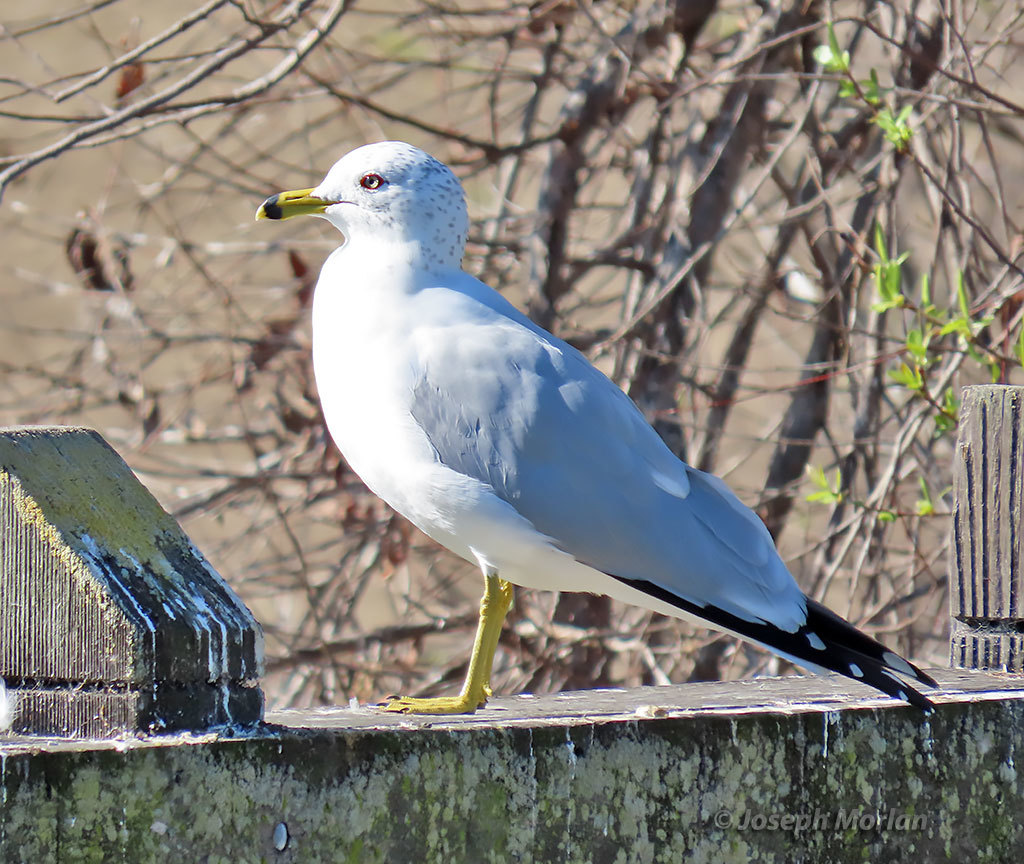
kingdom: Animalia
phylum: Chordata
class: Aves
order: Charadriiformes
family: Laridae
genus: Larus
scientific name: Larus delawarensis
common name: Ring-billed gull
